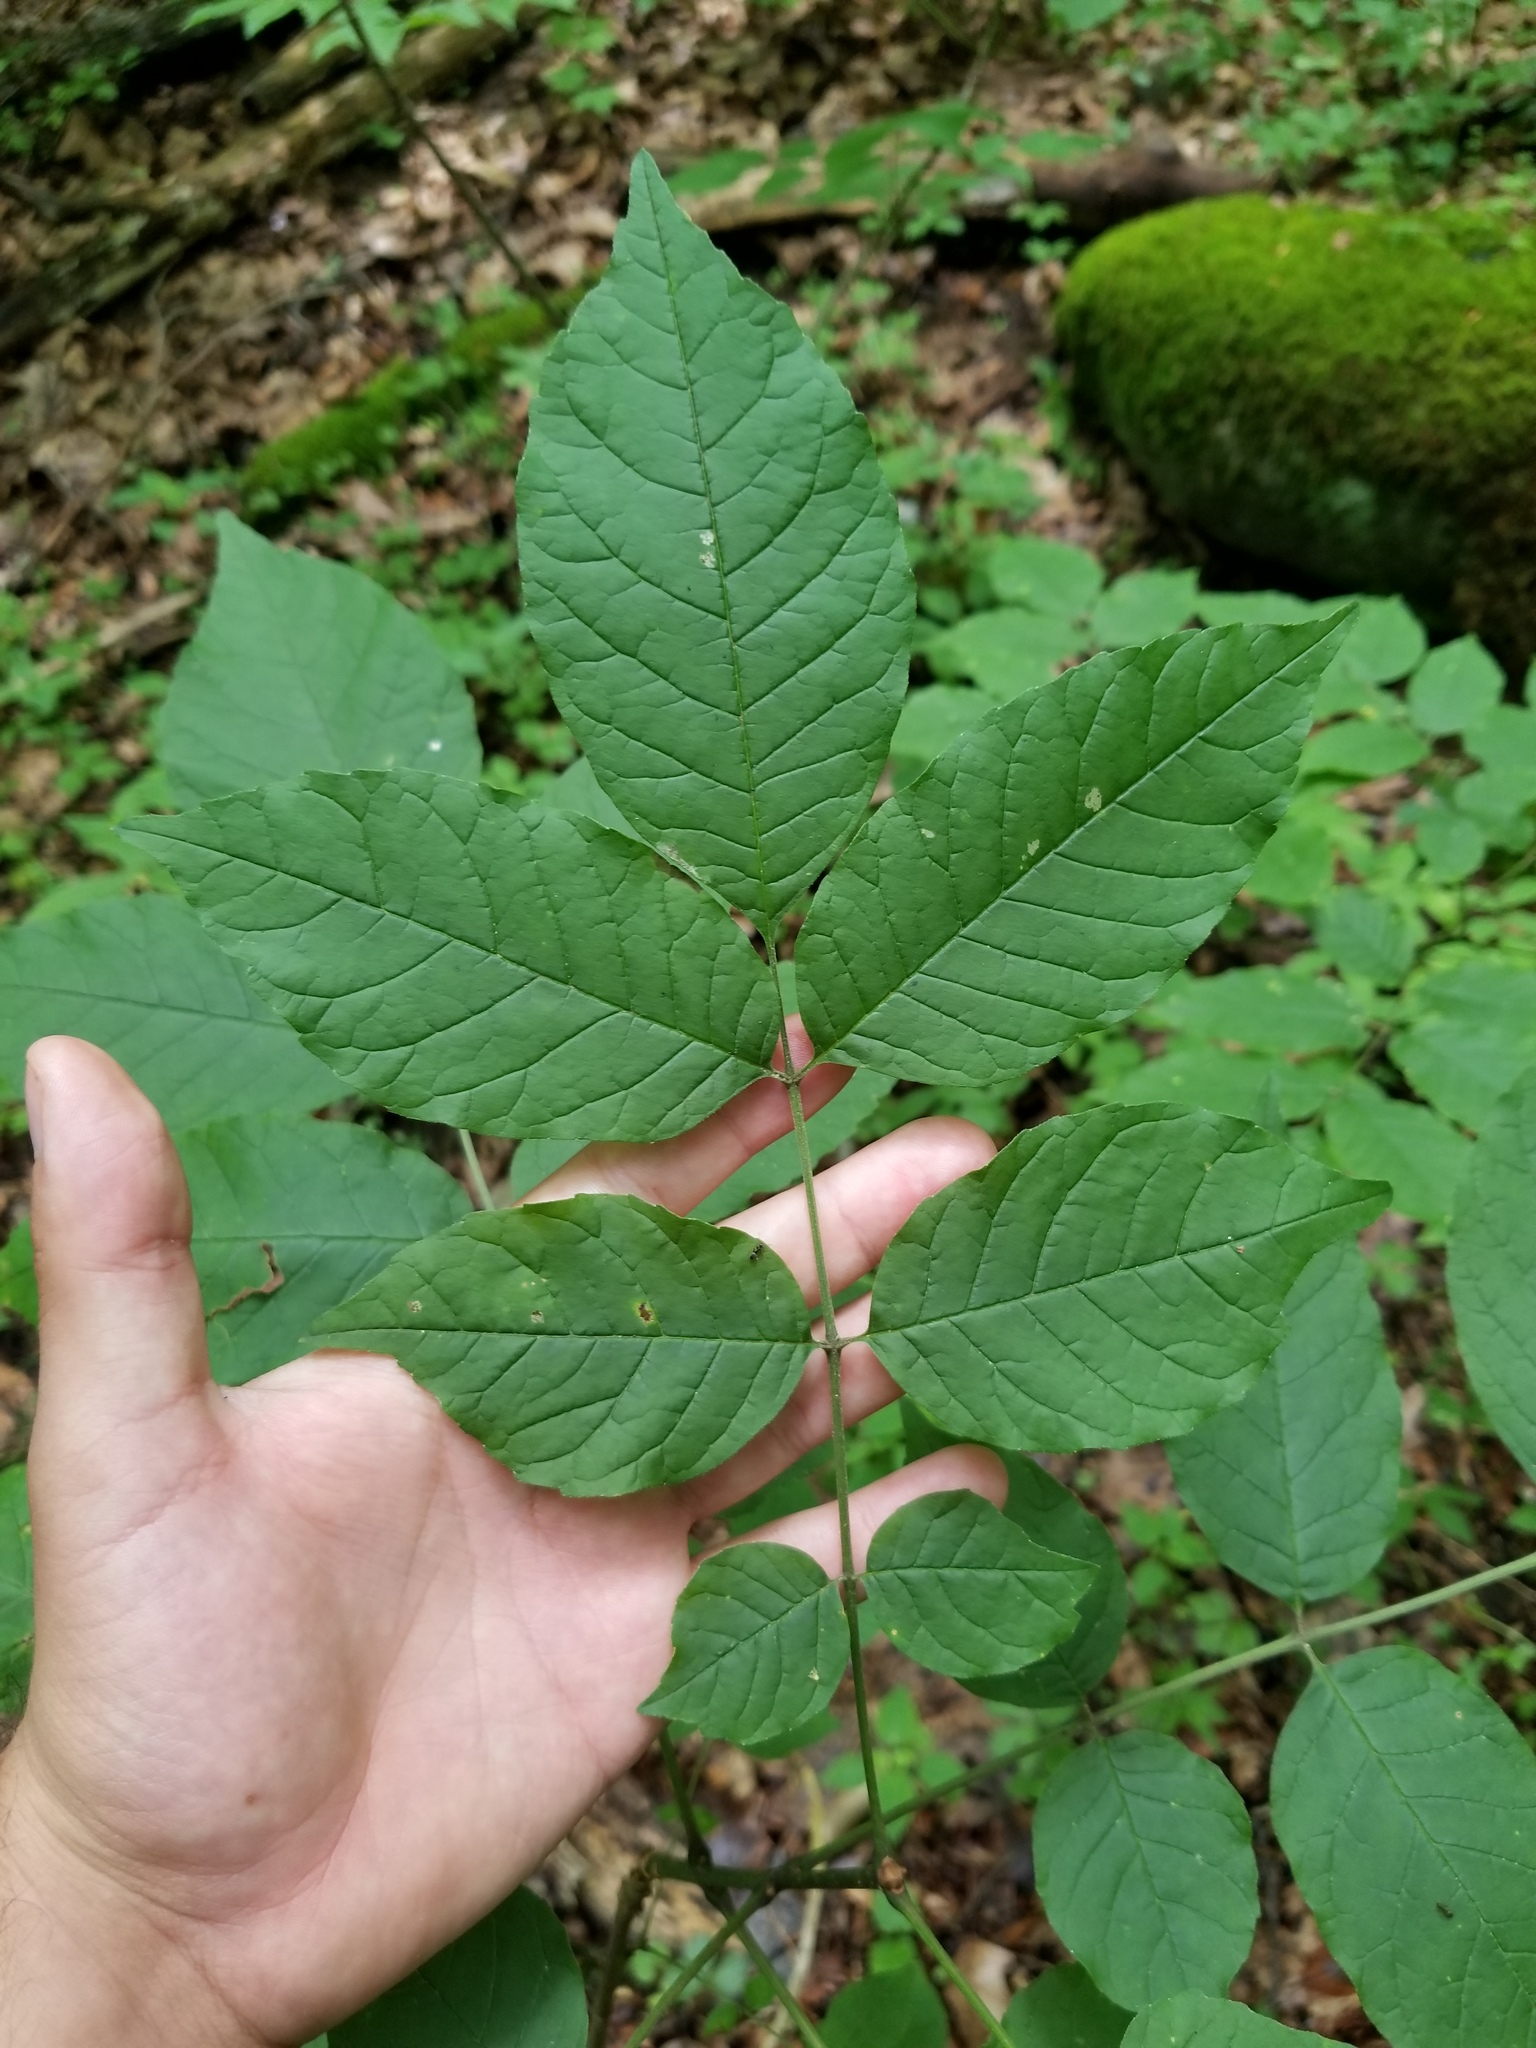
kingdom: Plantae
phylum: Tracheophyta
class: Magnoliopsida
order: Lamiales
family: Oleaceae
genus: Fraxinus
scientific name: Fraxinus pennsylvanica
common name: Green ash
